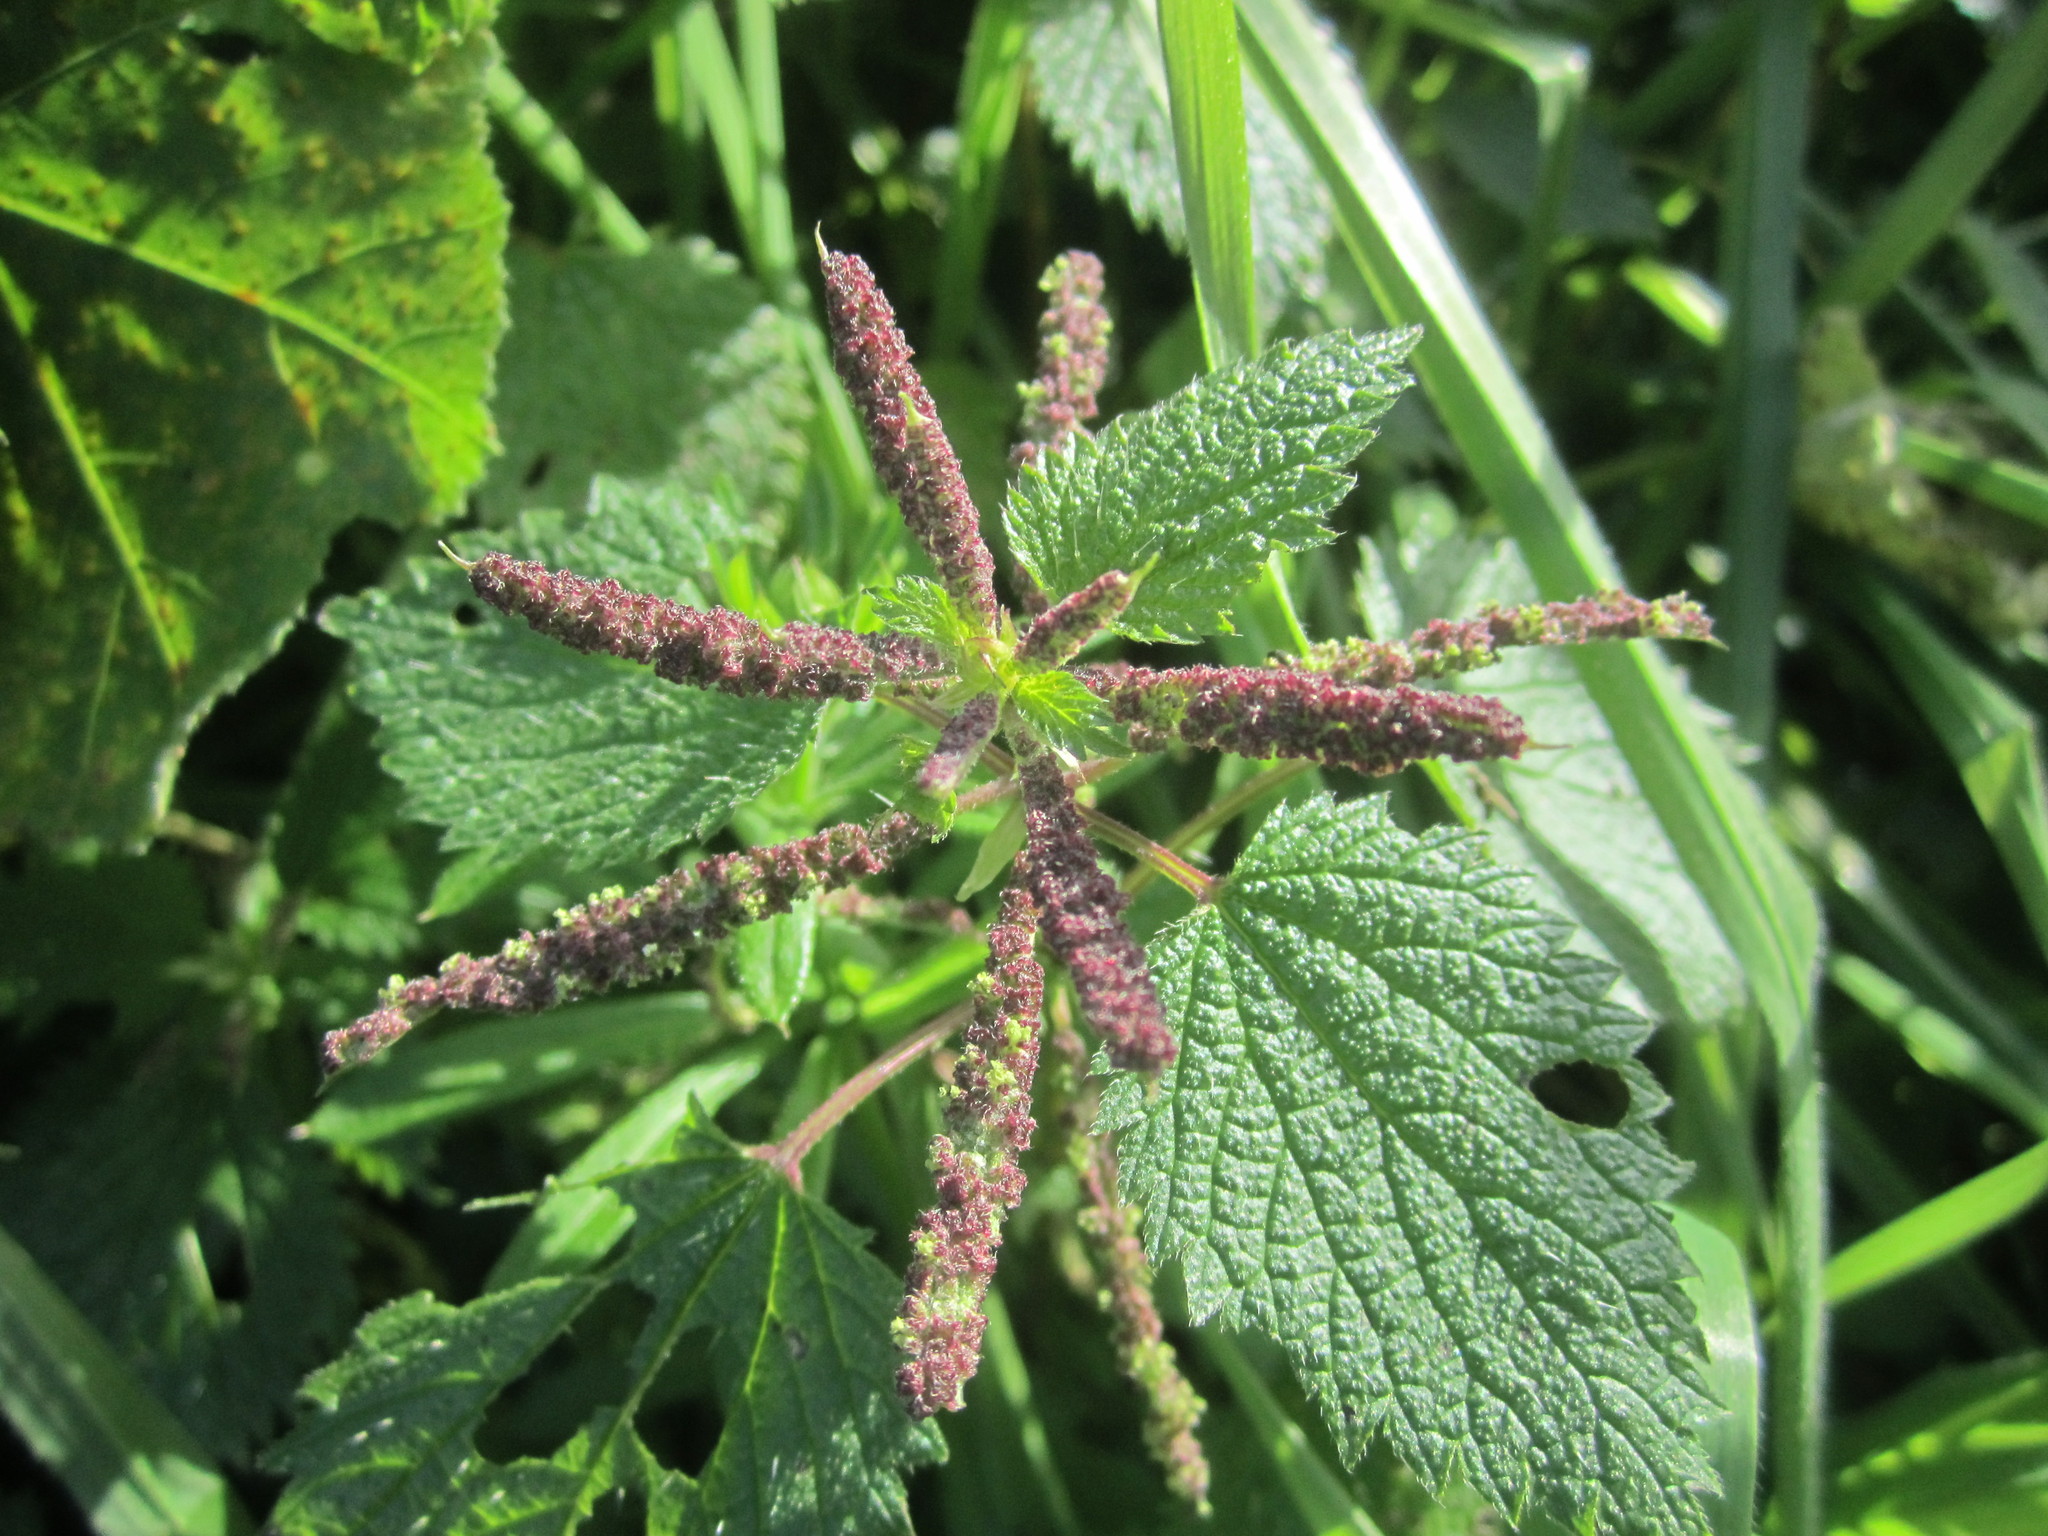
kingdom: Plantae
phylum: Tracheophyta
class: Magnoliopsida
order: Rosales
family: Urticaceae
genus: Urtica
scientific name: Urtica membranacea
